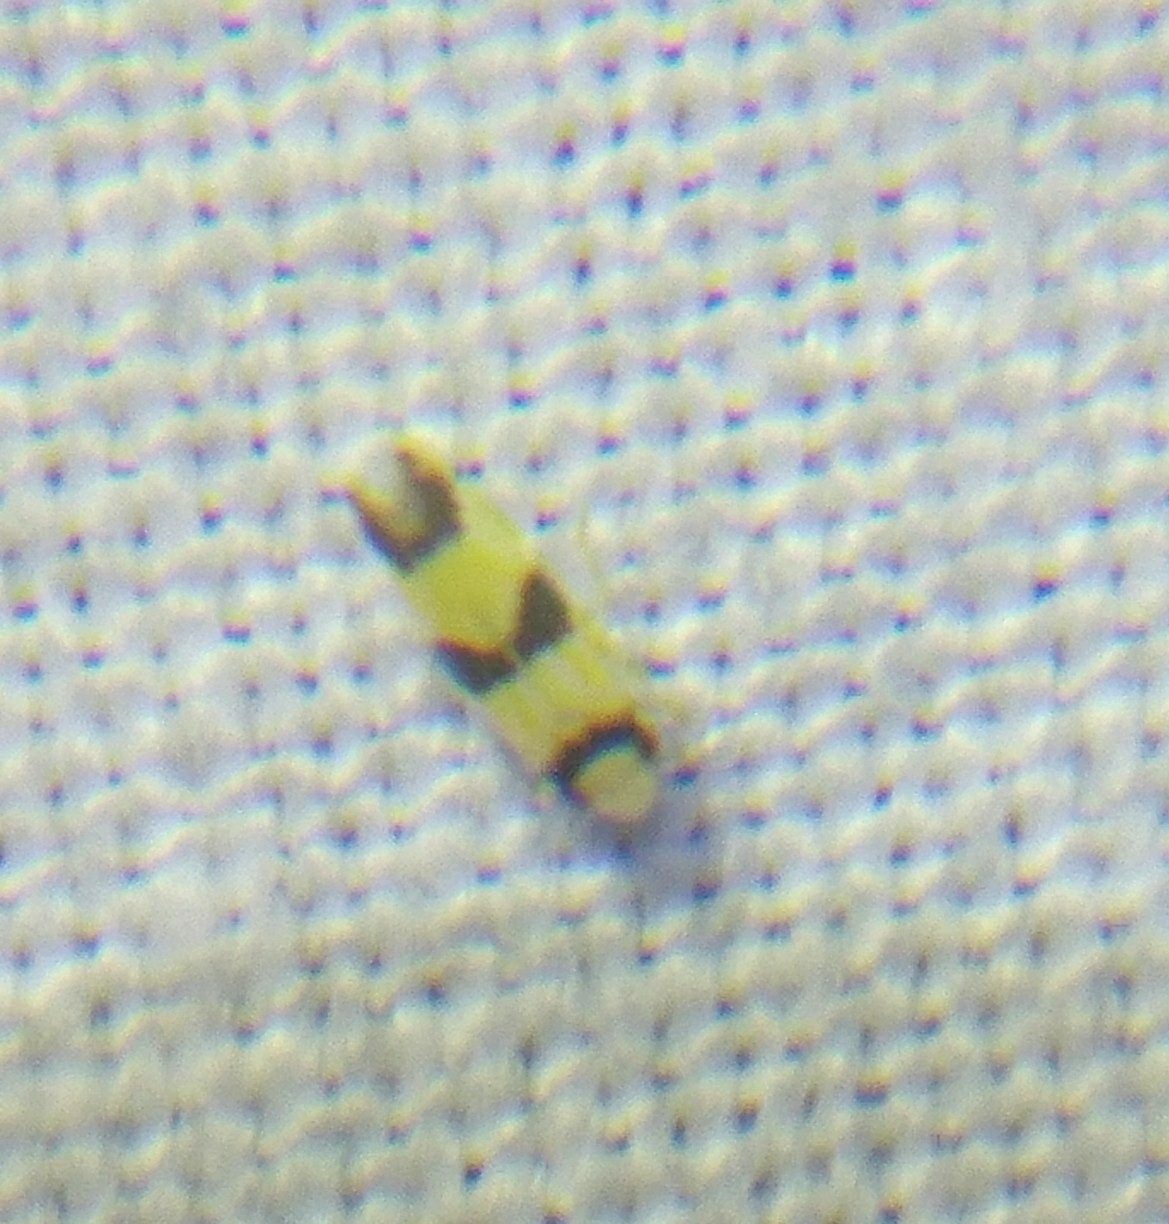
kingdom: Animalia
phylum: Arthropoda
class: Insecta
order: Hemiptera
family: Cicadellidae
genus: Erythroneura
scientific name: Erythroneura calycula
